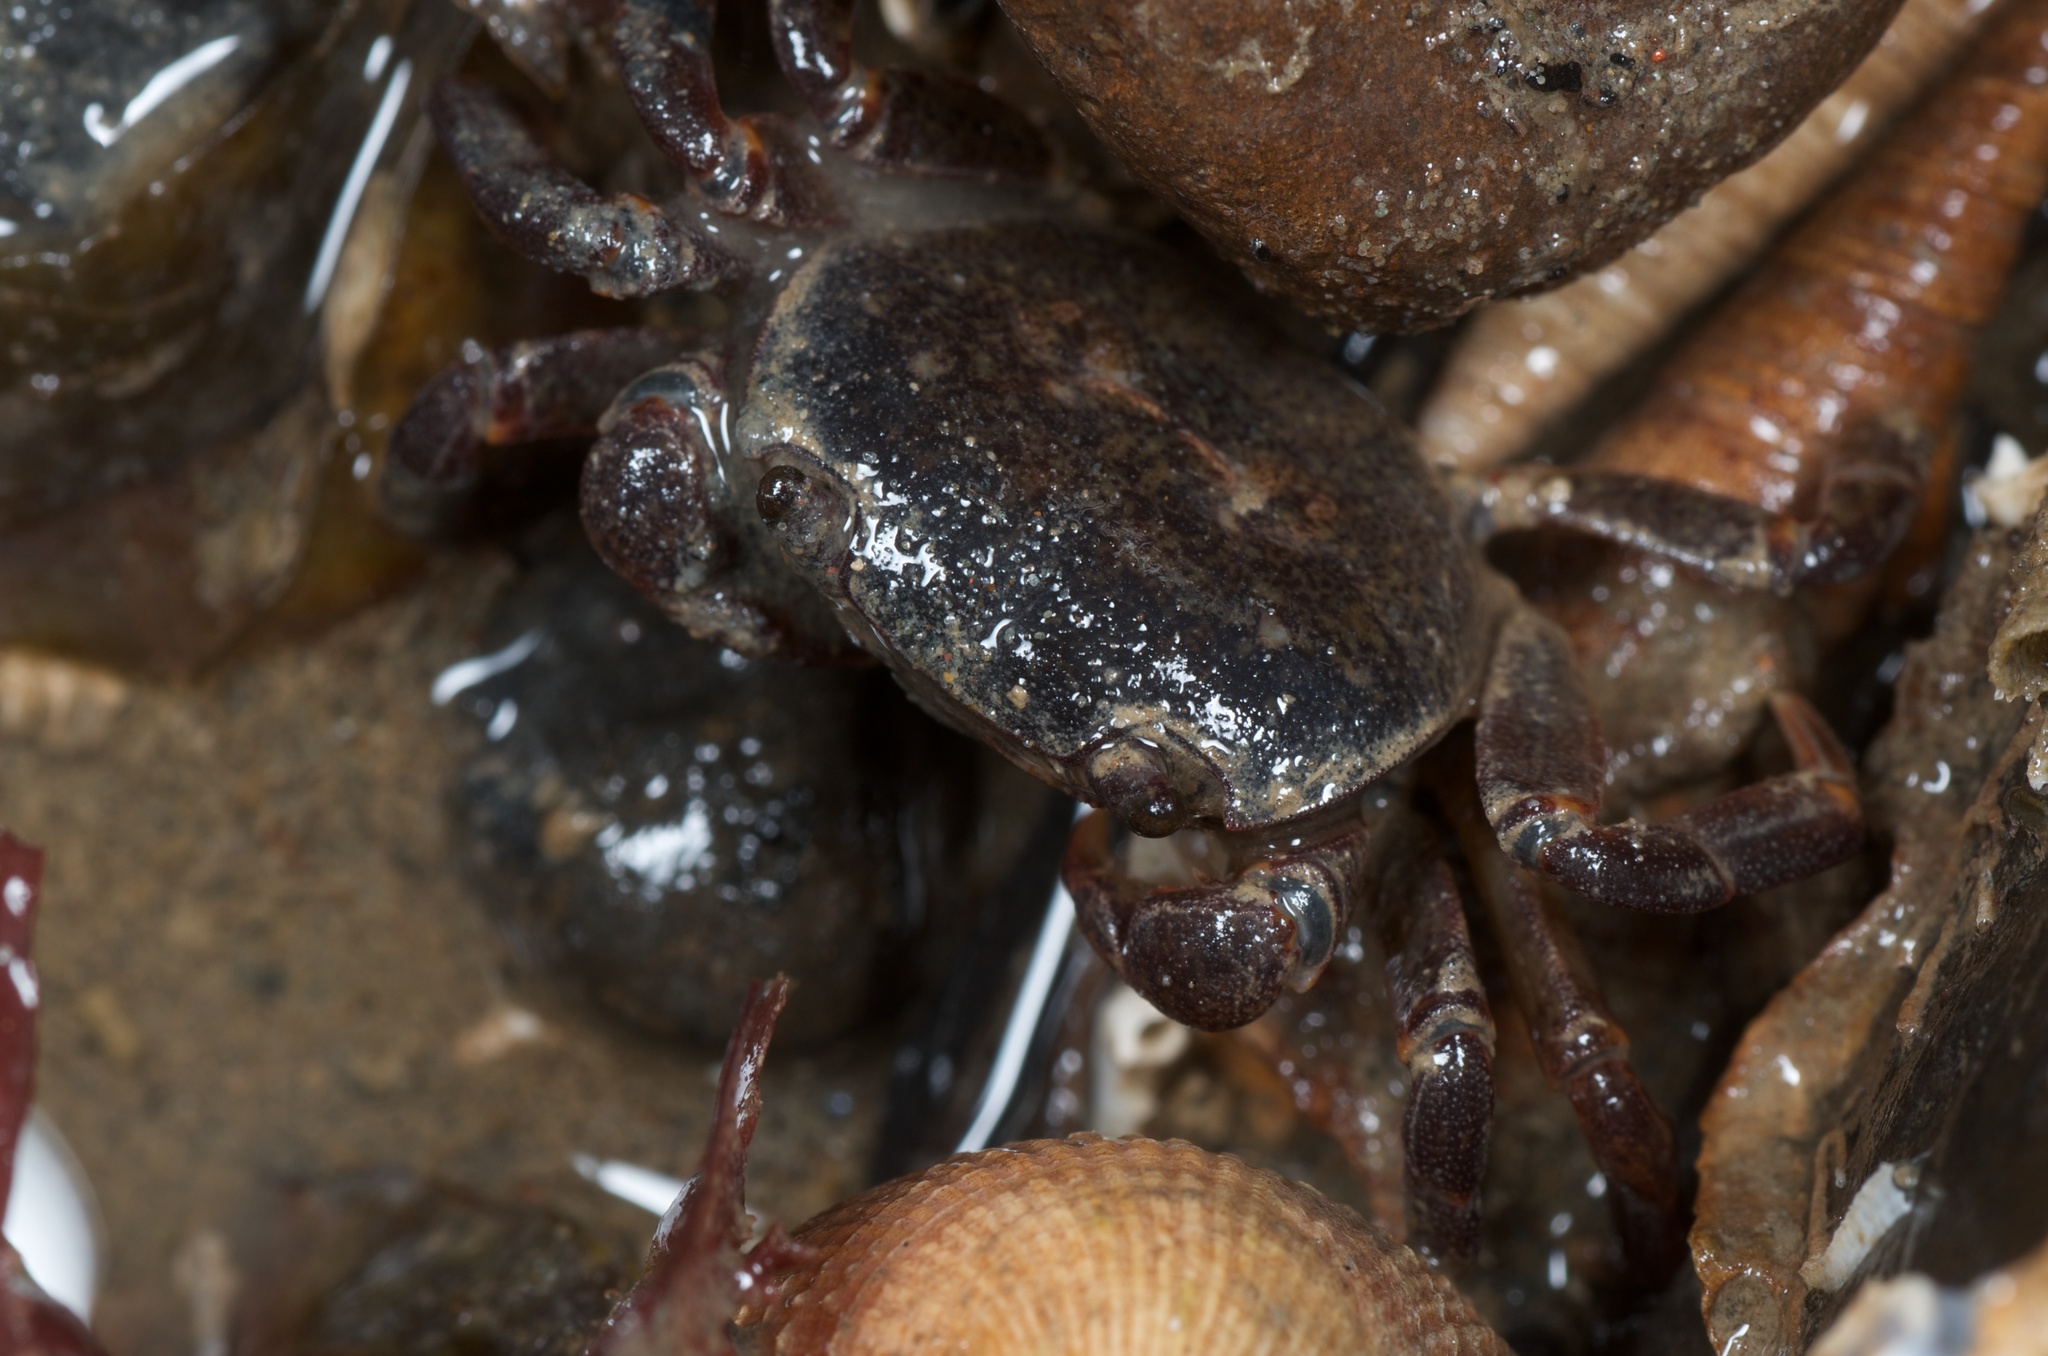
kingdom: Animalia
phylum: Arthropoda
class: Malacostraca
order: Decapoda
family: Varunidae
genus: Cyclograpsus
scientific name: Cyclograpsus lavauxi
